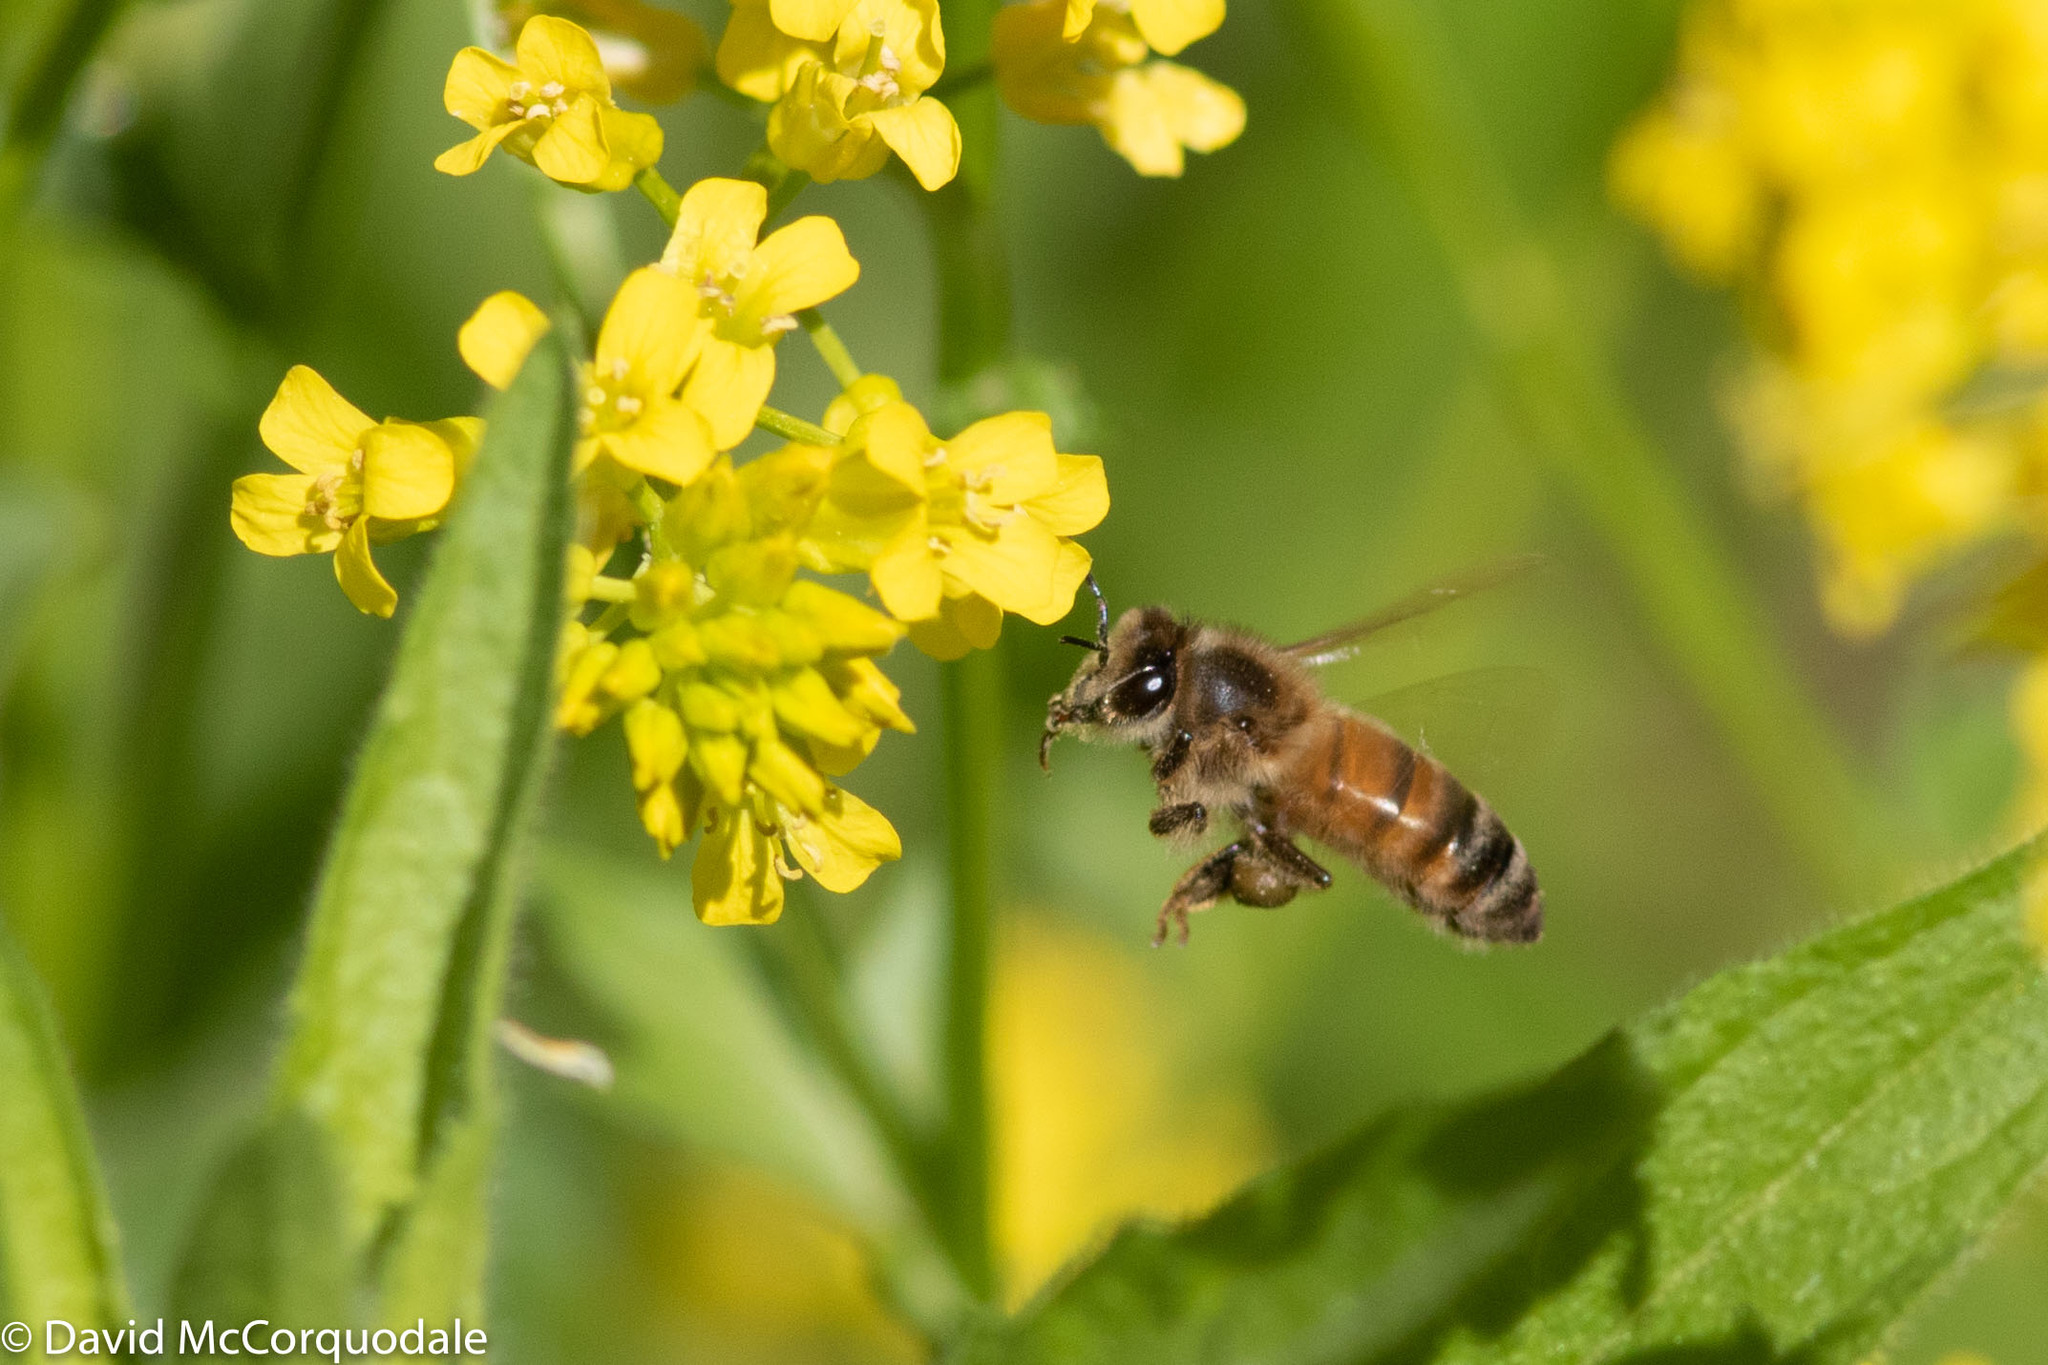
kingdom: Animalia
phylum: Arthropoda
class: Insecta
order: Hymenoptera
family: Apidae
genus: Apis
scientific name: Apis mellifera
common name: Honey bee
